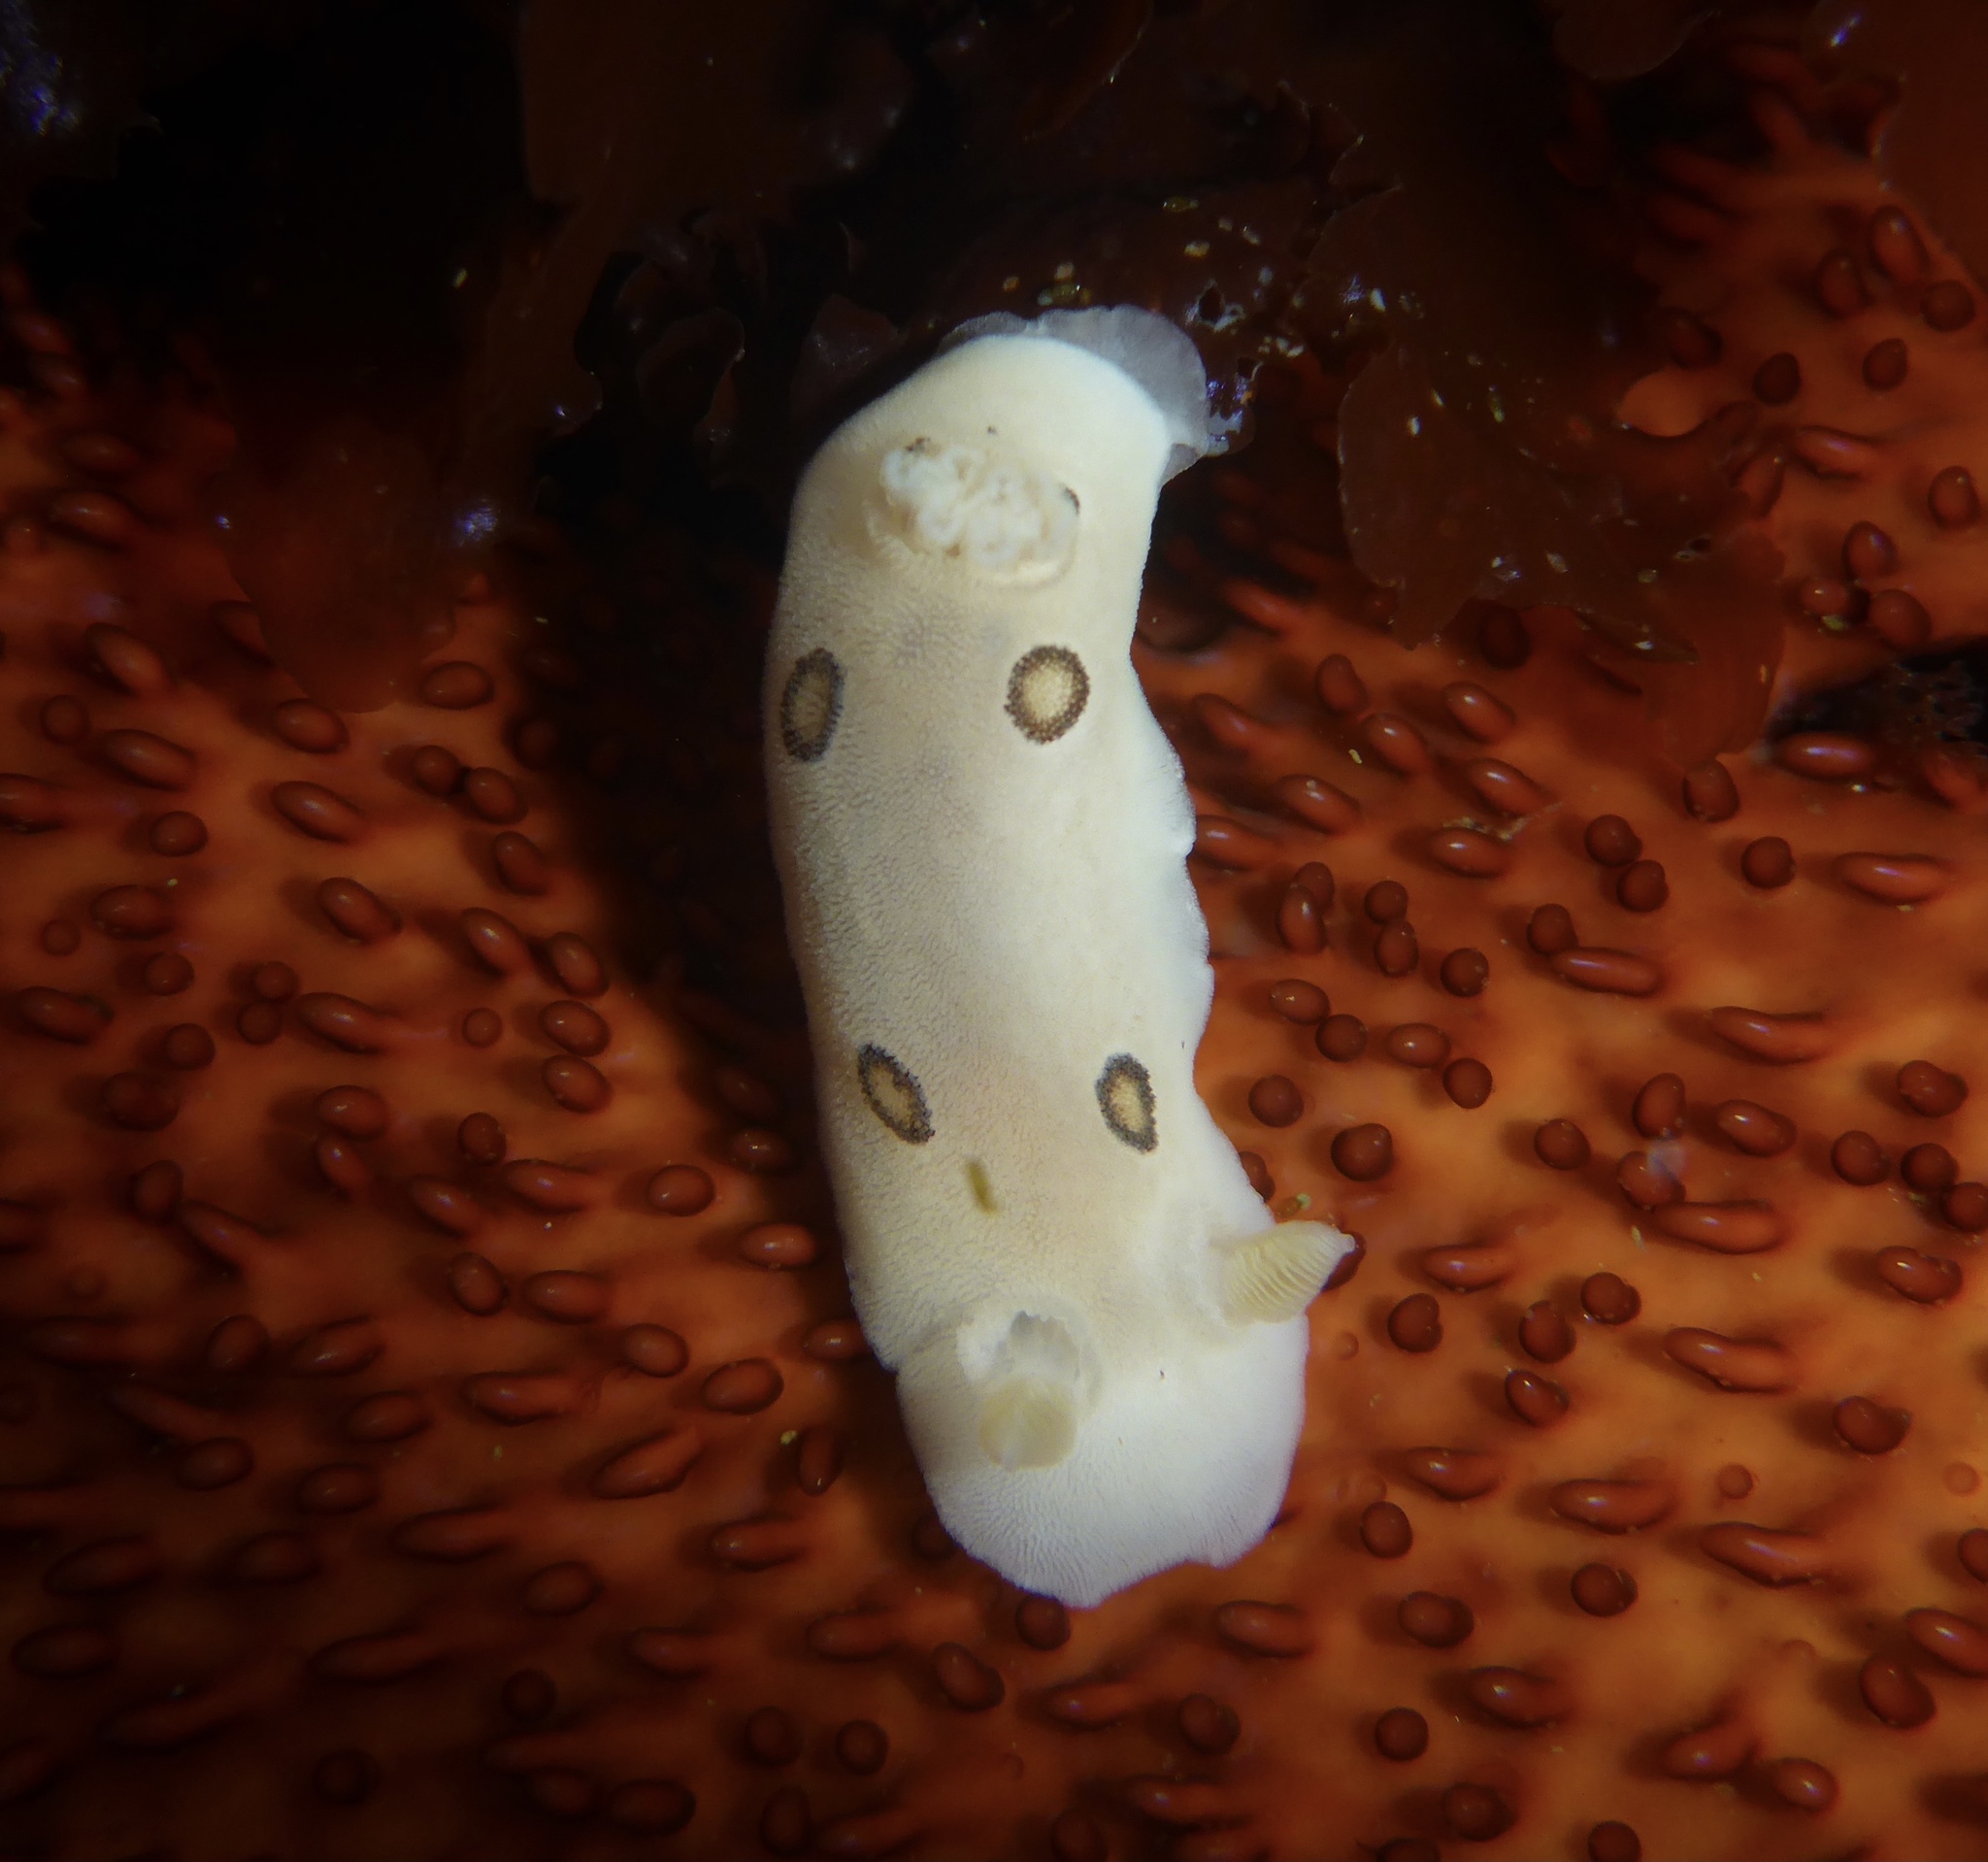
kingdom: Animalia
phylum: Mollusca
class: Gastropoda
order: Nudibranchia
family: Discodorididae
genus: Diaulula
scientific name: Diaulula sandiegensis
